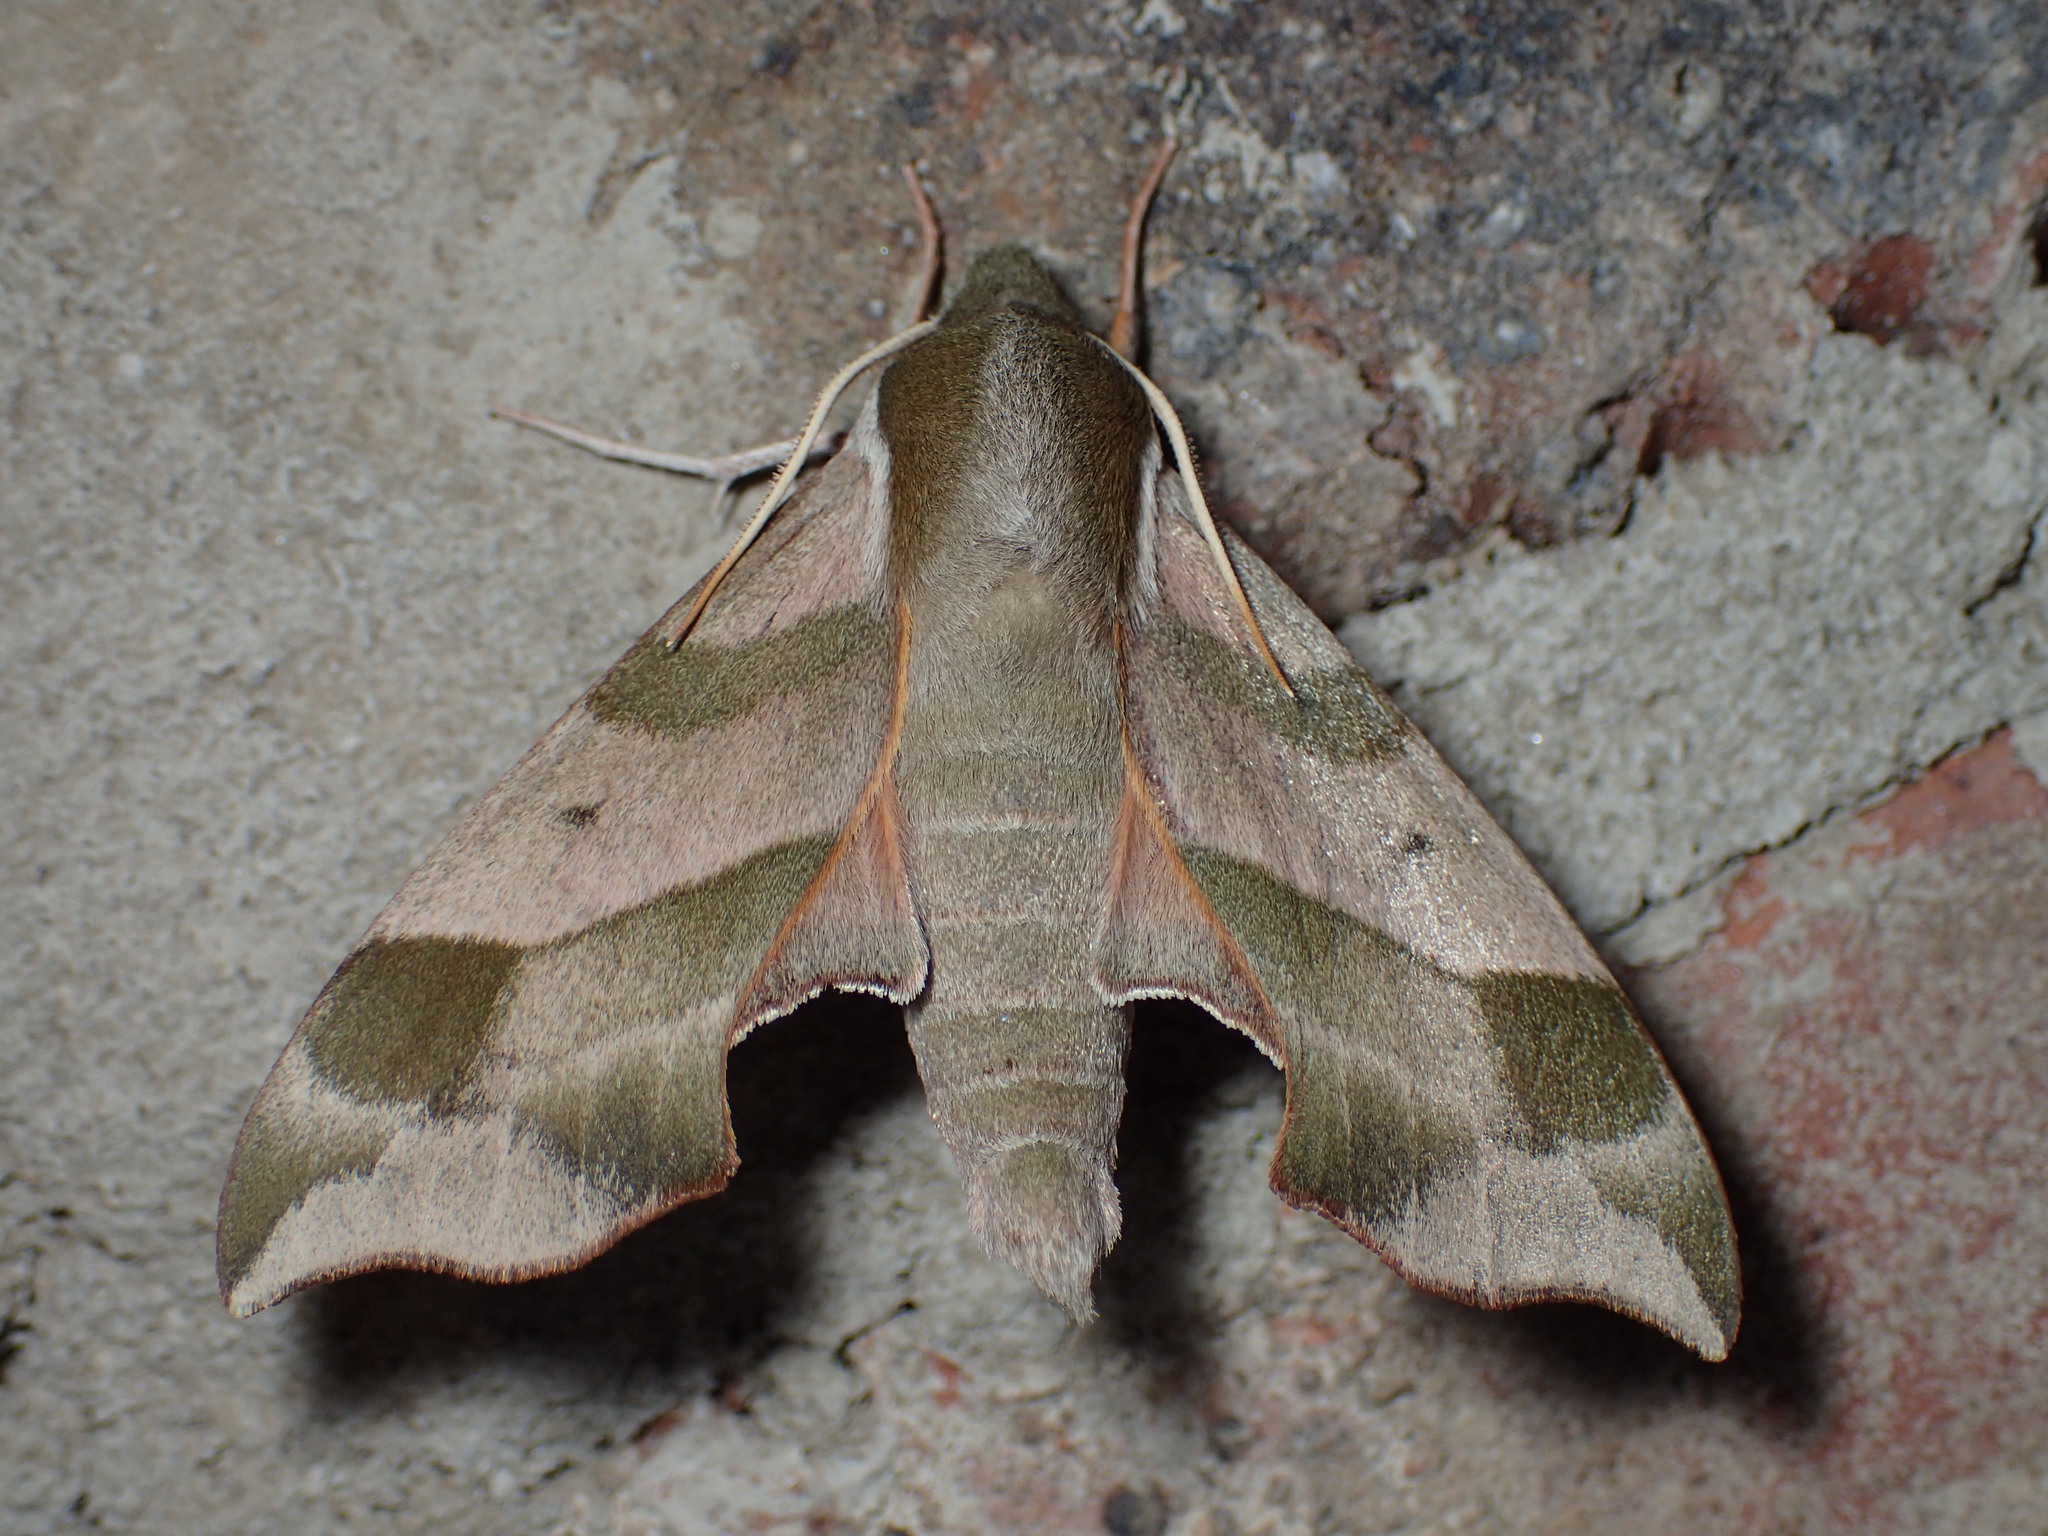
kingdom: Animalia
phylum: Arthropoda
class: Insecta
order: Lepidoptera
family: Sphingidae
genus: Darapsa
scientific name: Darapsa myron
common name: Hog sphinx
